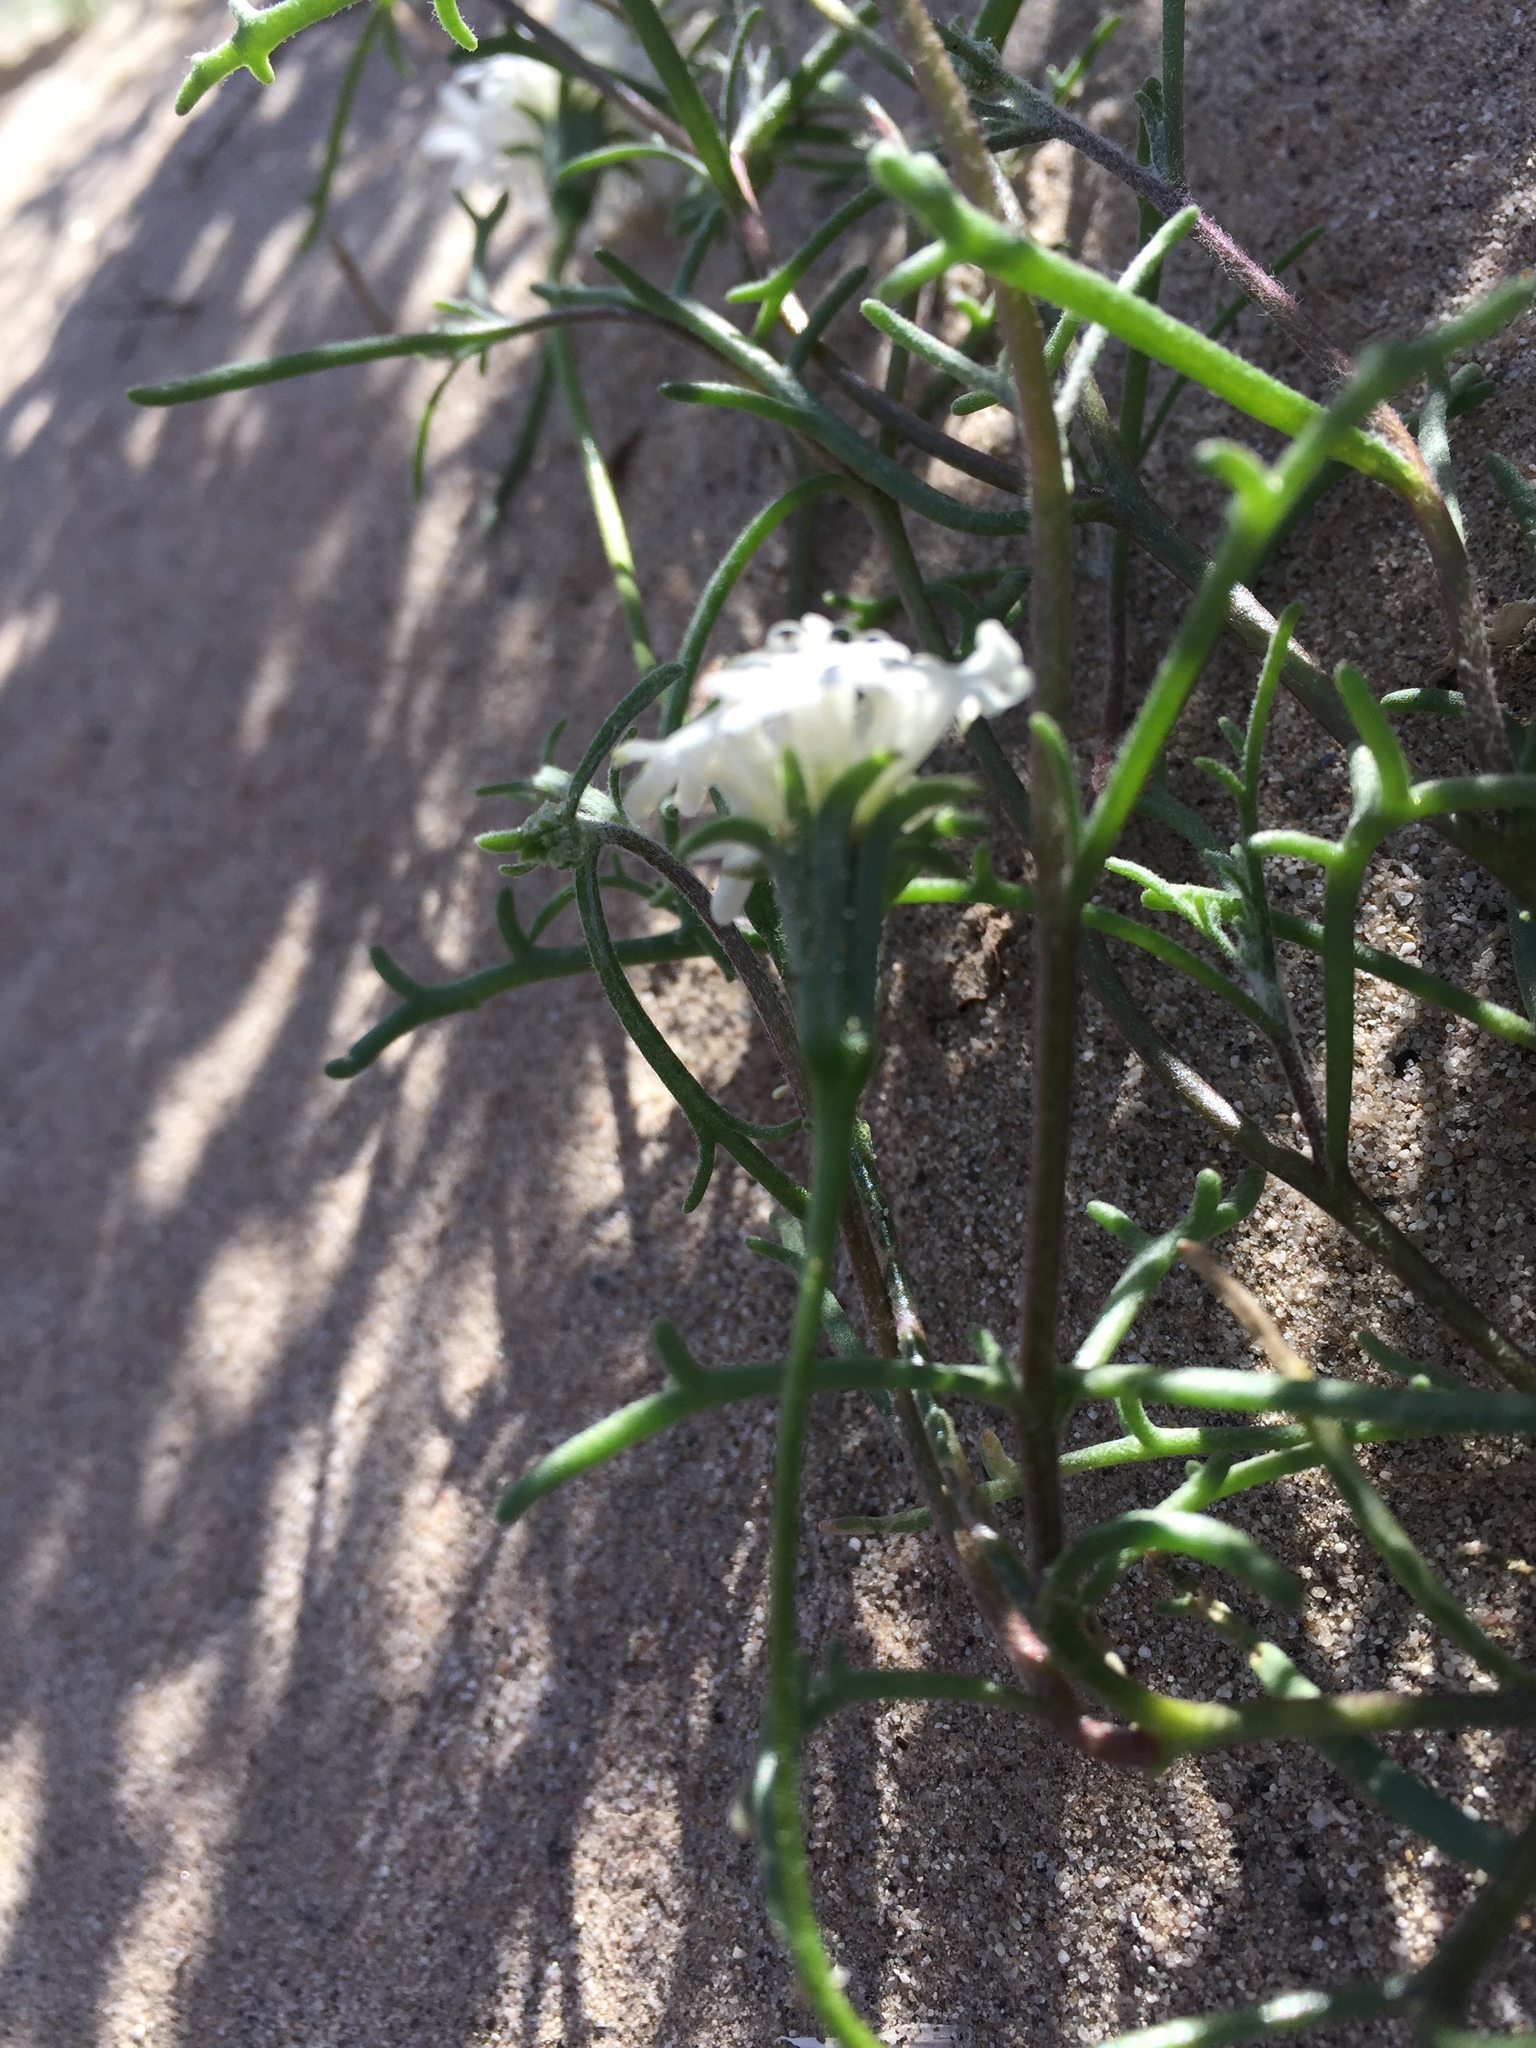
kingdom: Plantae
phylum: Tracheophyta
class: Magnoliopsida
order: Asterales
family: Asteraceae
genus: Chaenactis
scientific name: Chaenactis fremontii
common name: Fremont pincushion
